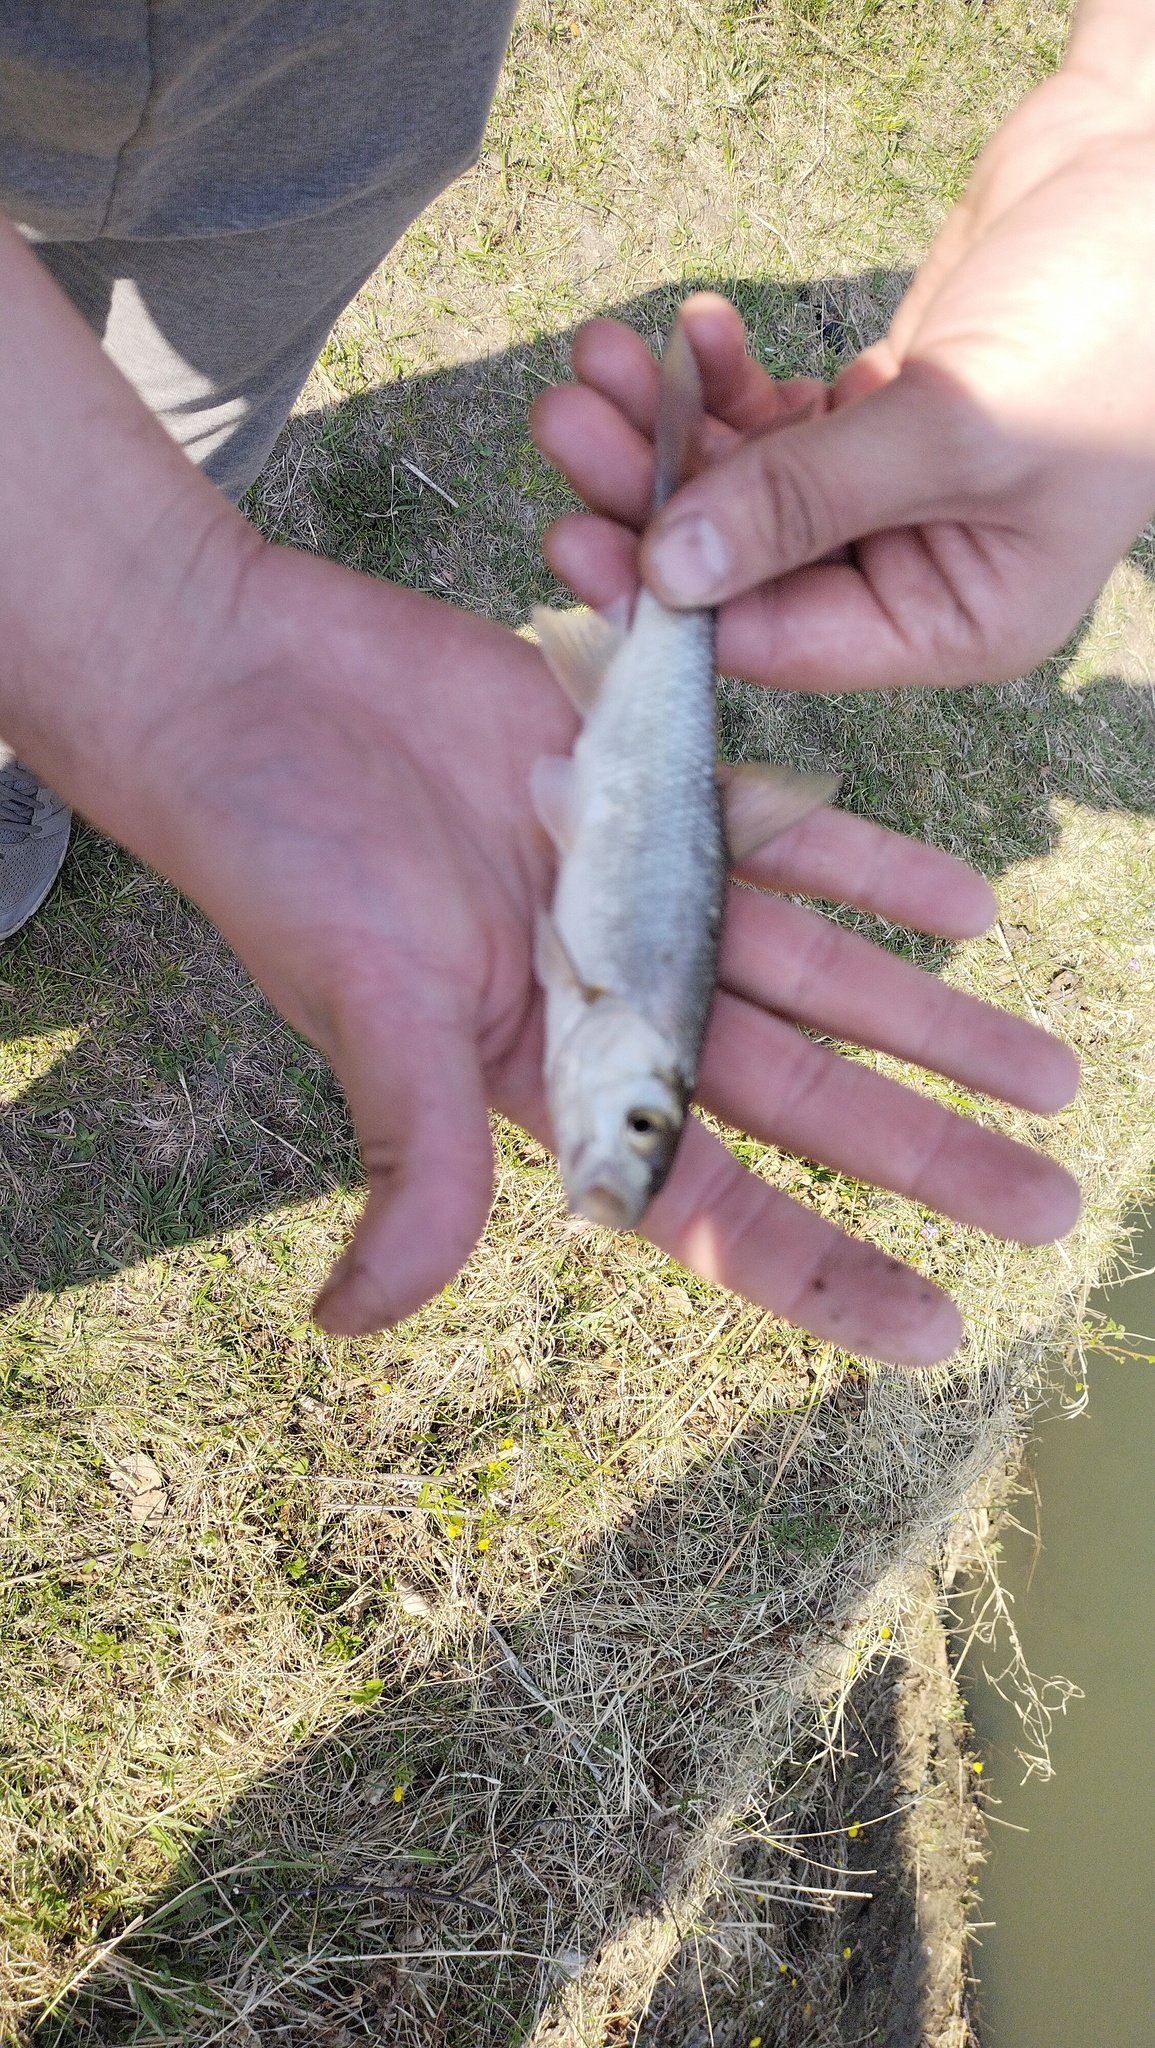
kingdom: Animalia
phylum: Chordata
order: Cypriniformes
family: Cyprinidae
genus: Leuciscus
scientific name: Leuciscus baicalensis
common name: Siberian dace
